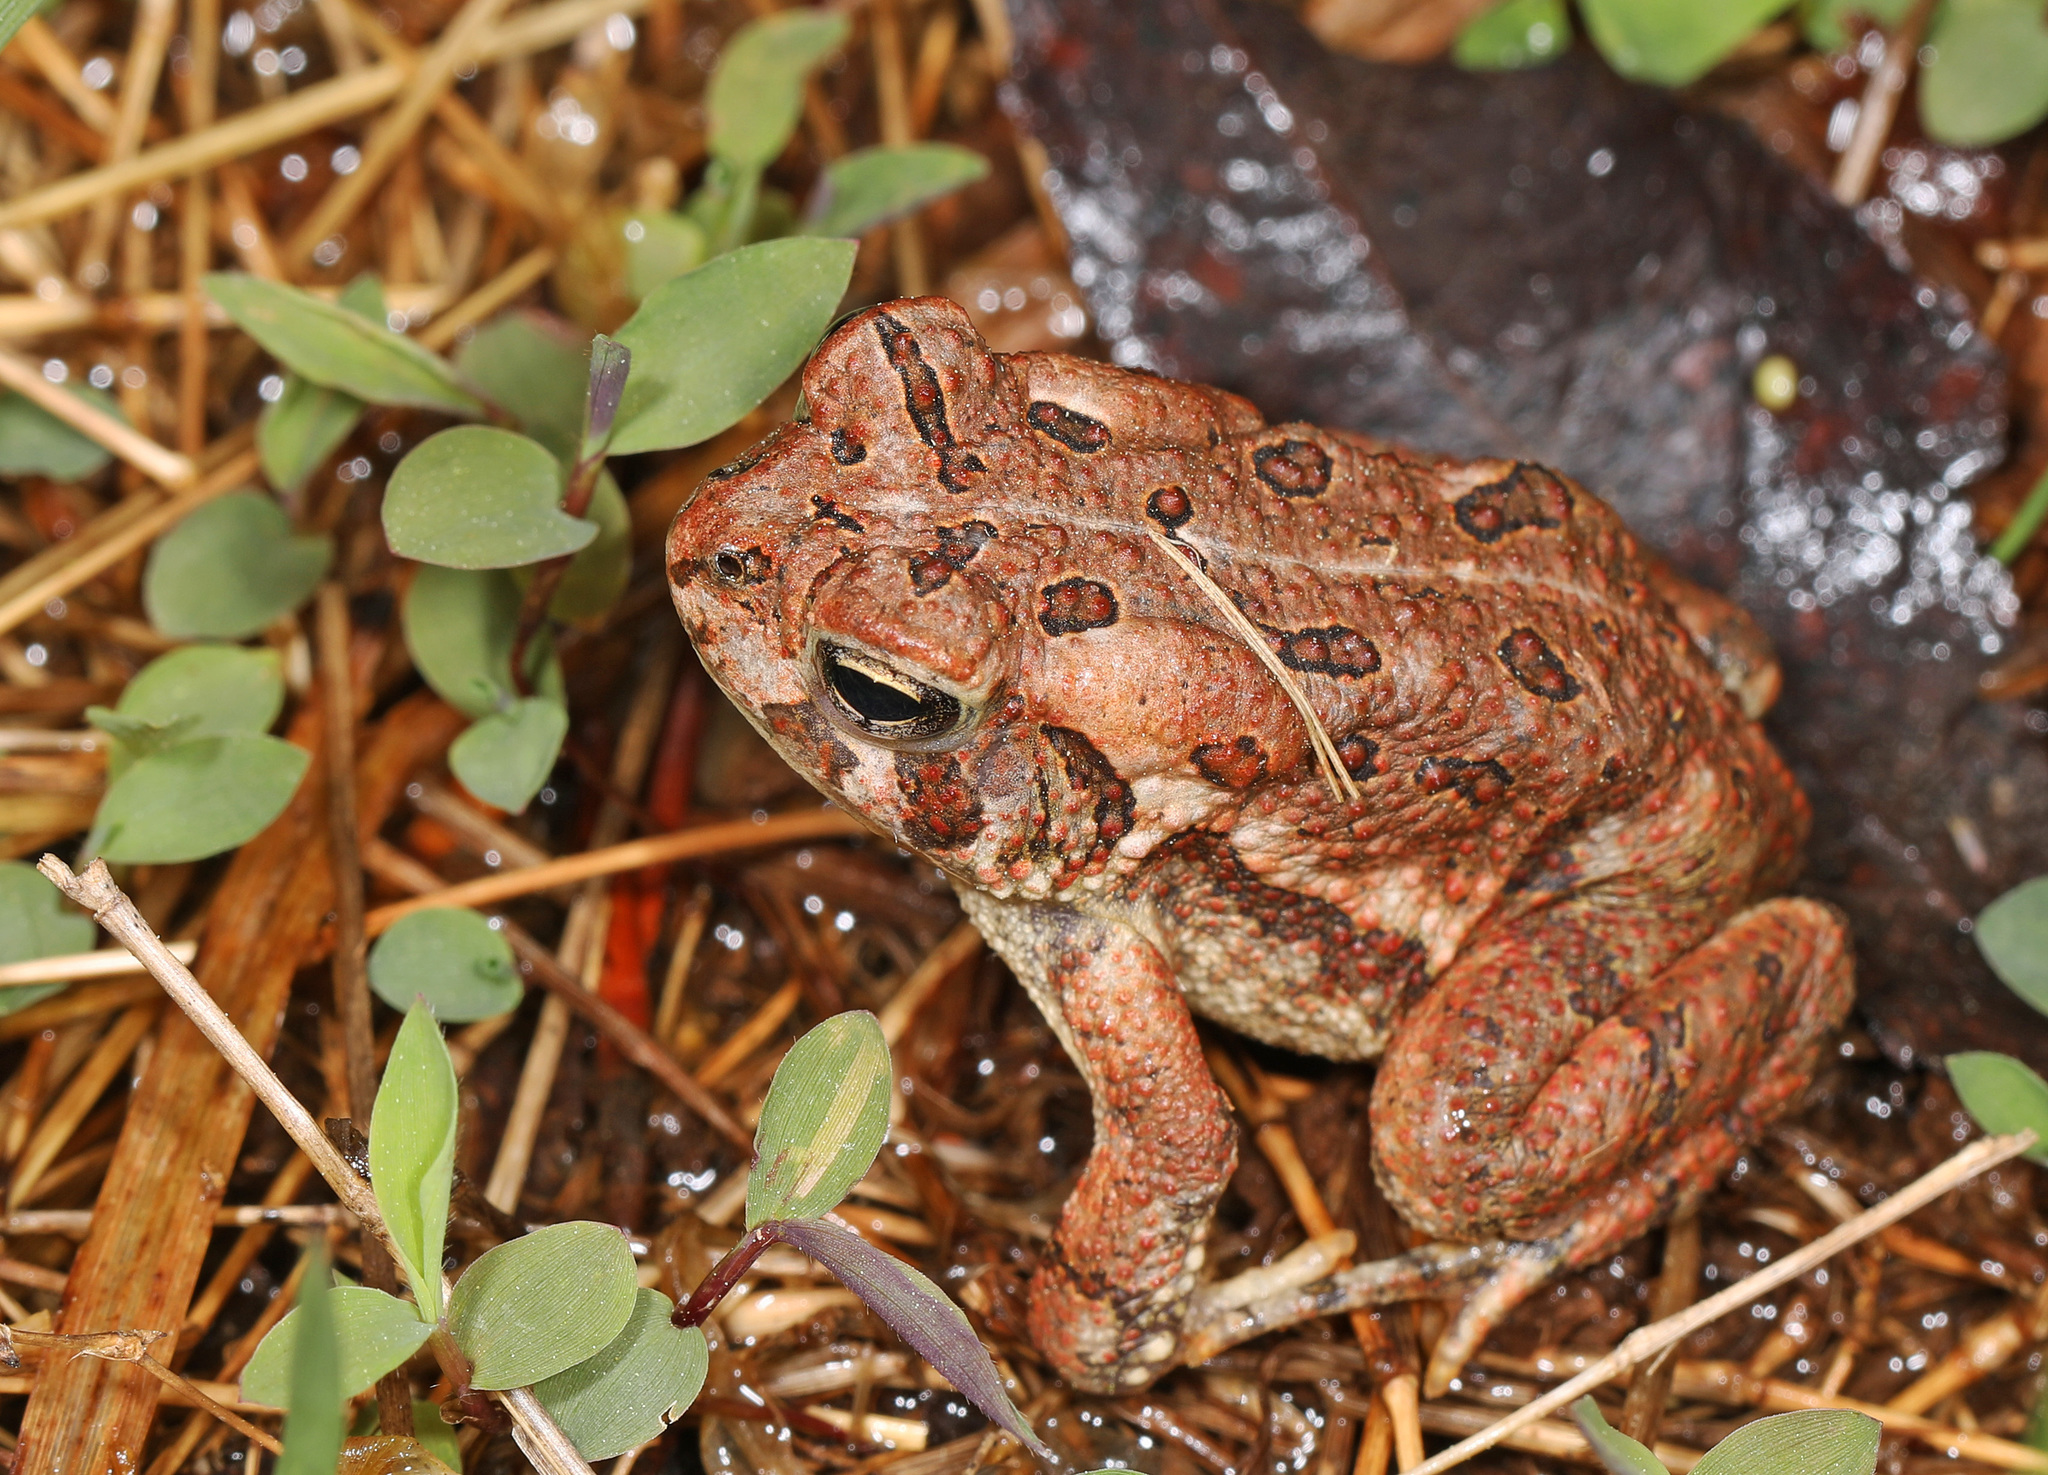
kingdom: Animalia
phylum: Chordata
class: Amphibia
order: Anura
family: Bufonidae
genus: Anaxyrus
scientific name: Anaxyrus fowleri
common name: Fowler's toad
